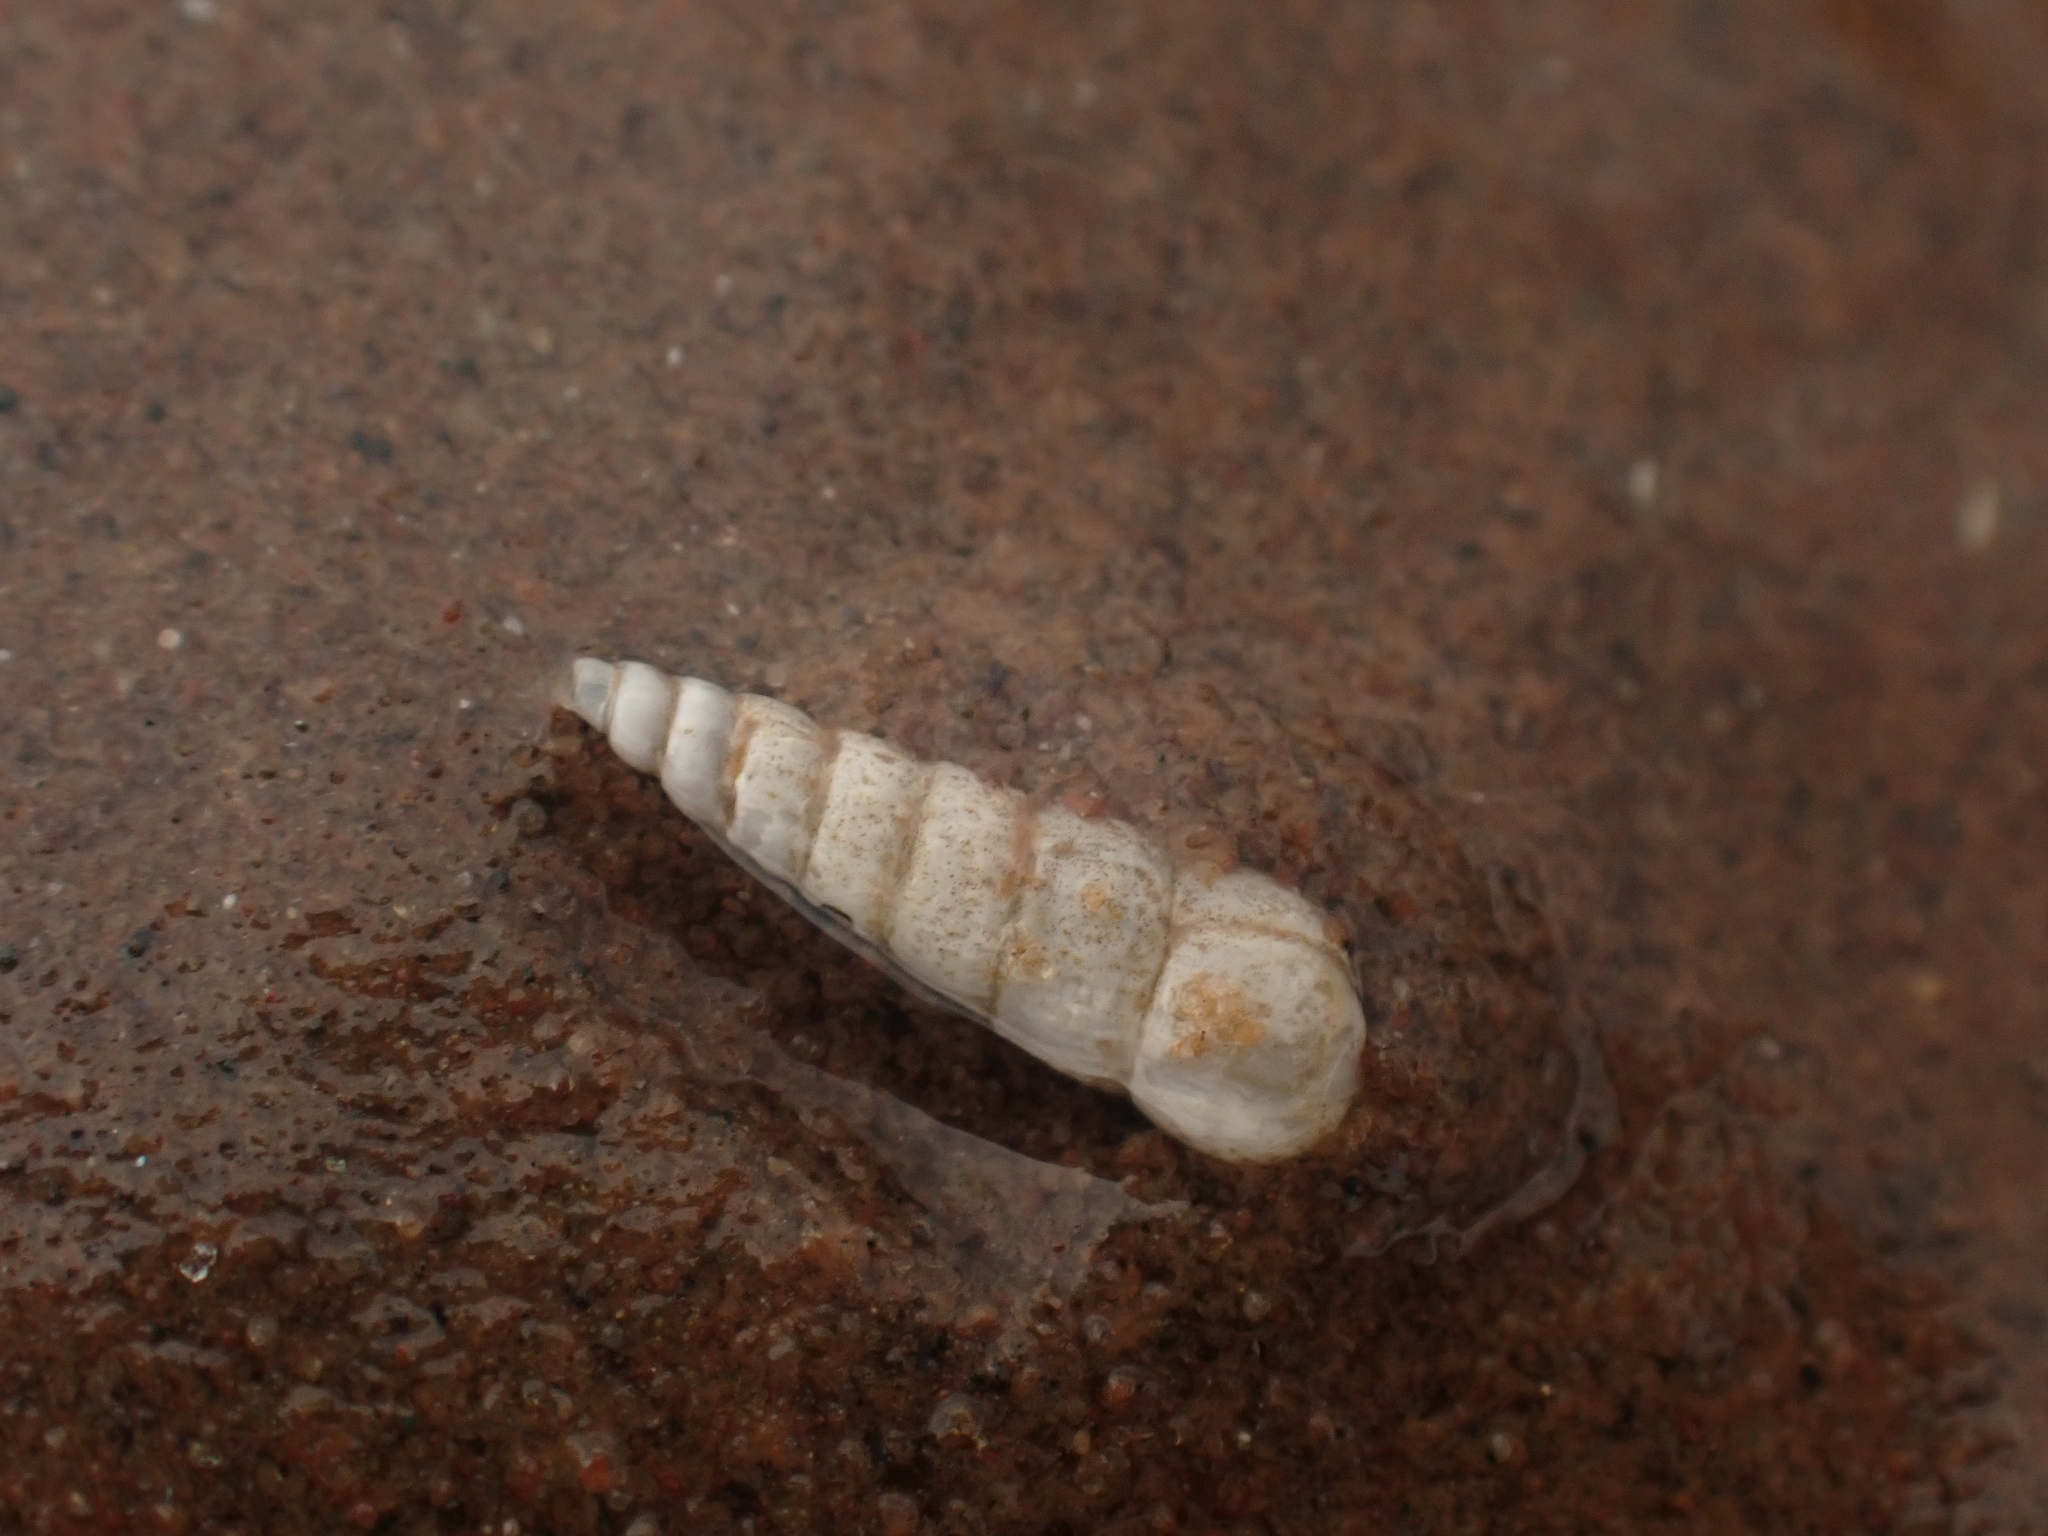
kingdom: Animalia
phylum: Mollusca
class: Gastropoda
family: Pyramidellidae
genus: Turbonilla
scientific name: Turbonilla
